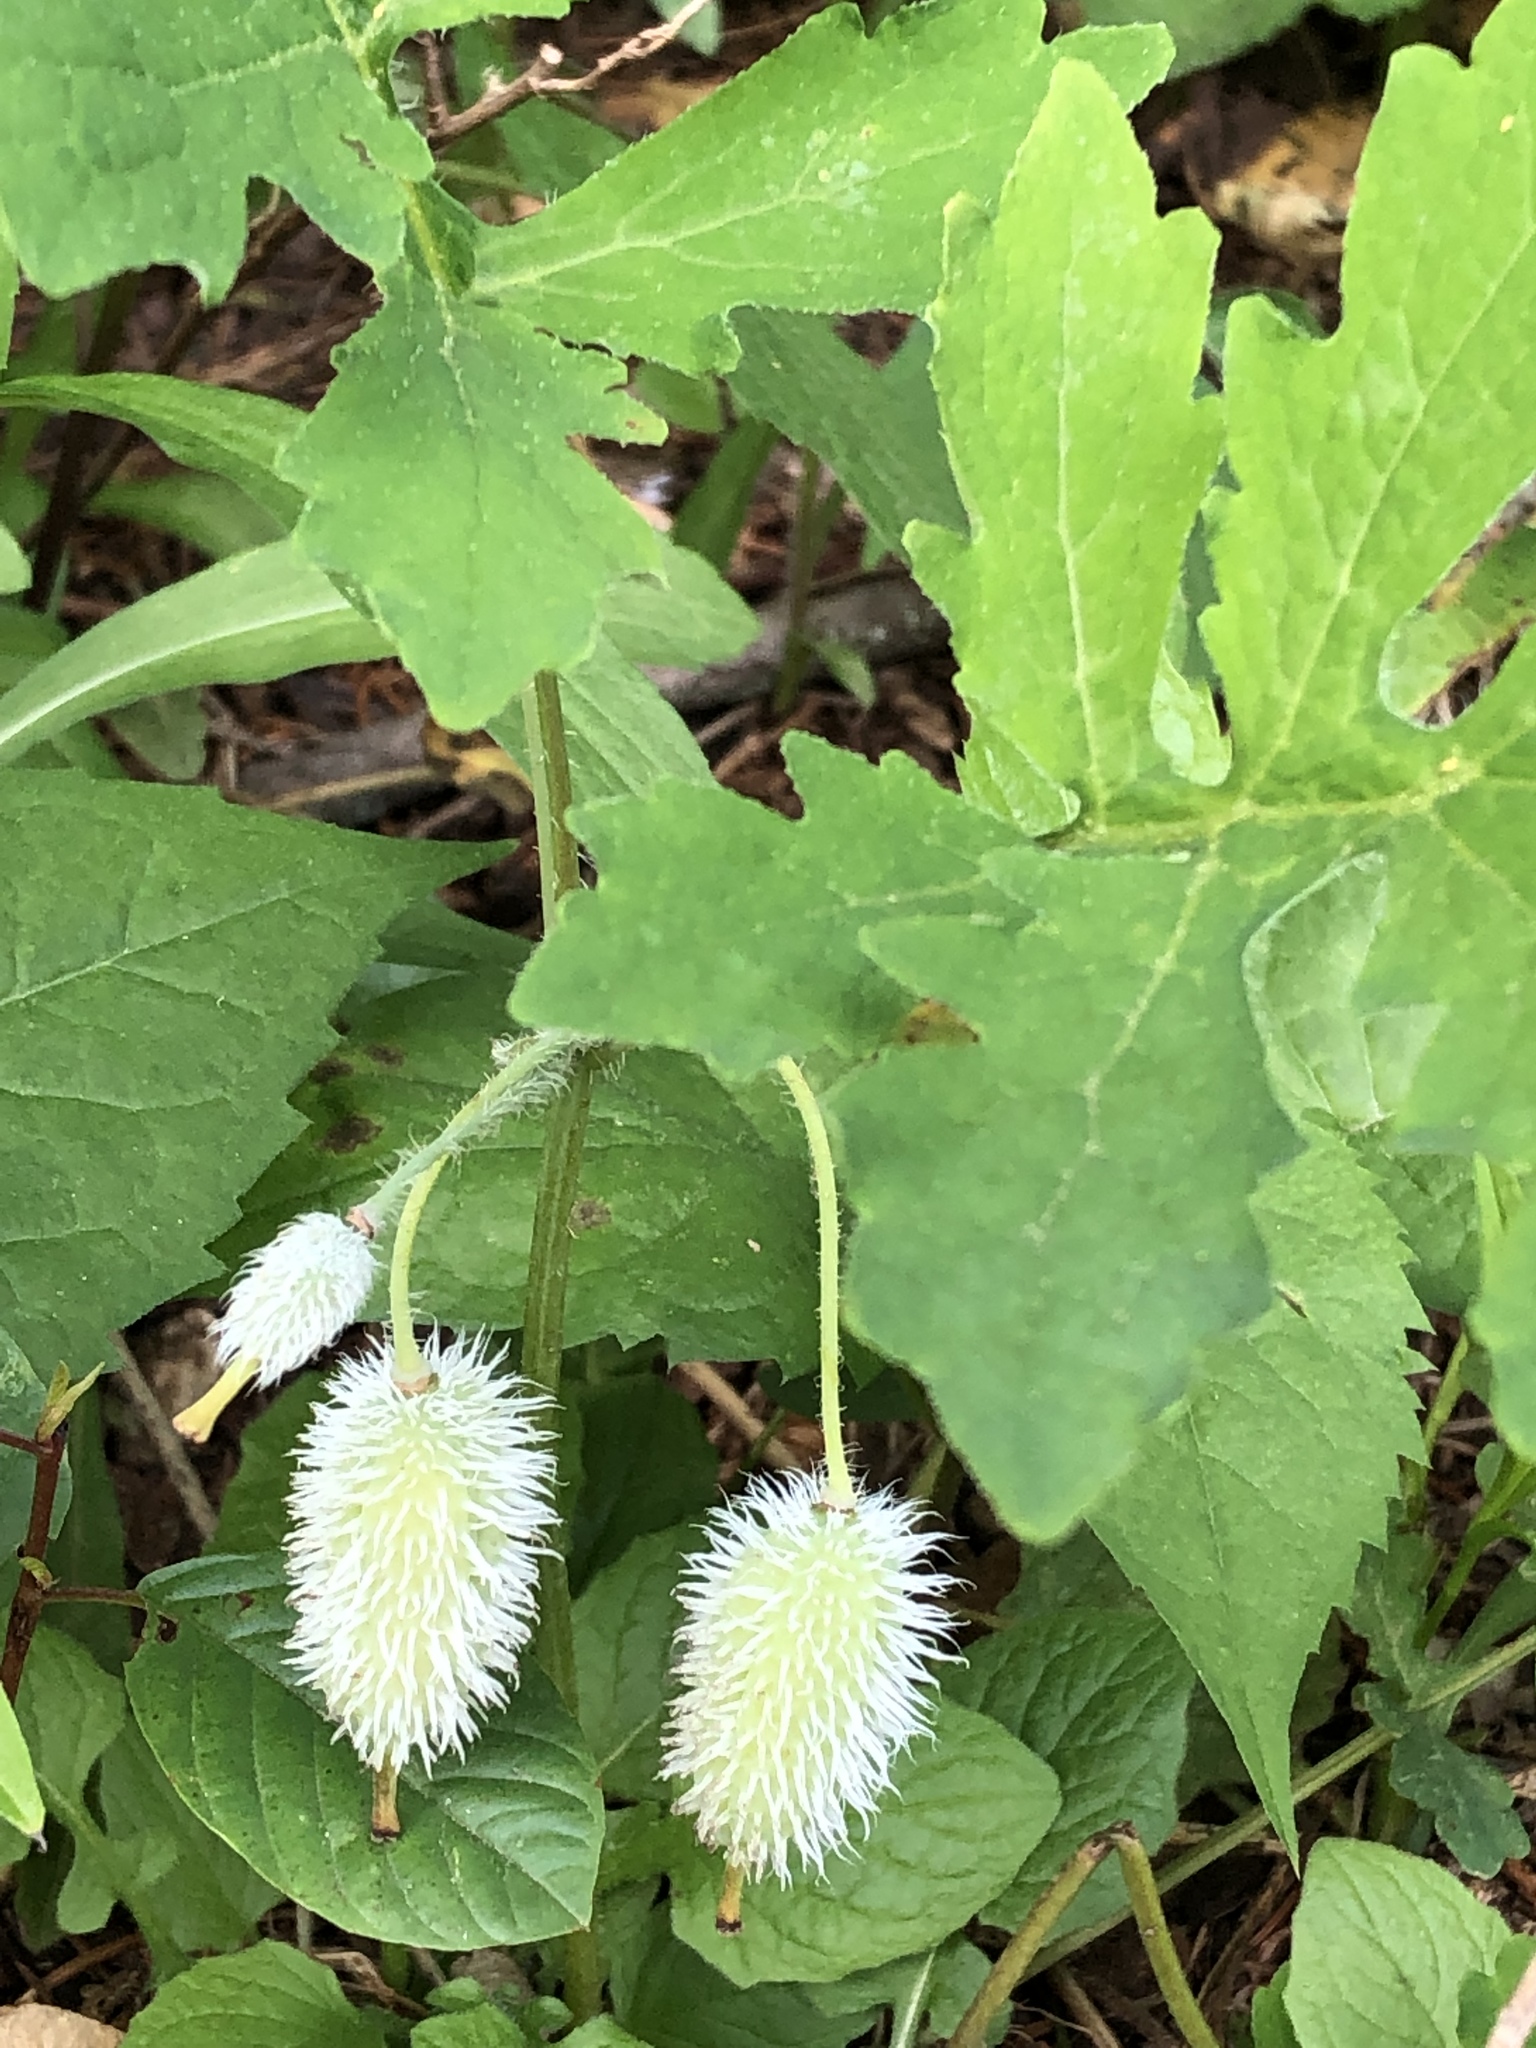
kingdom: Plantae
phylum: Tracheophyta
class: Magnoliopsida
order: Ranunculales
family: Papaveraceae
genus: Stylophorum
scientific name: Stylophorum diphyllum
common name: Celandine poppy
